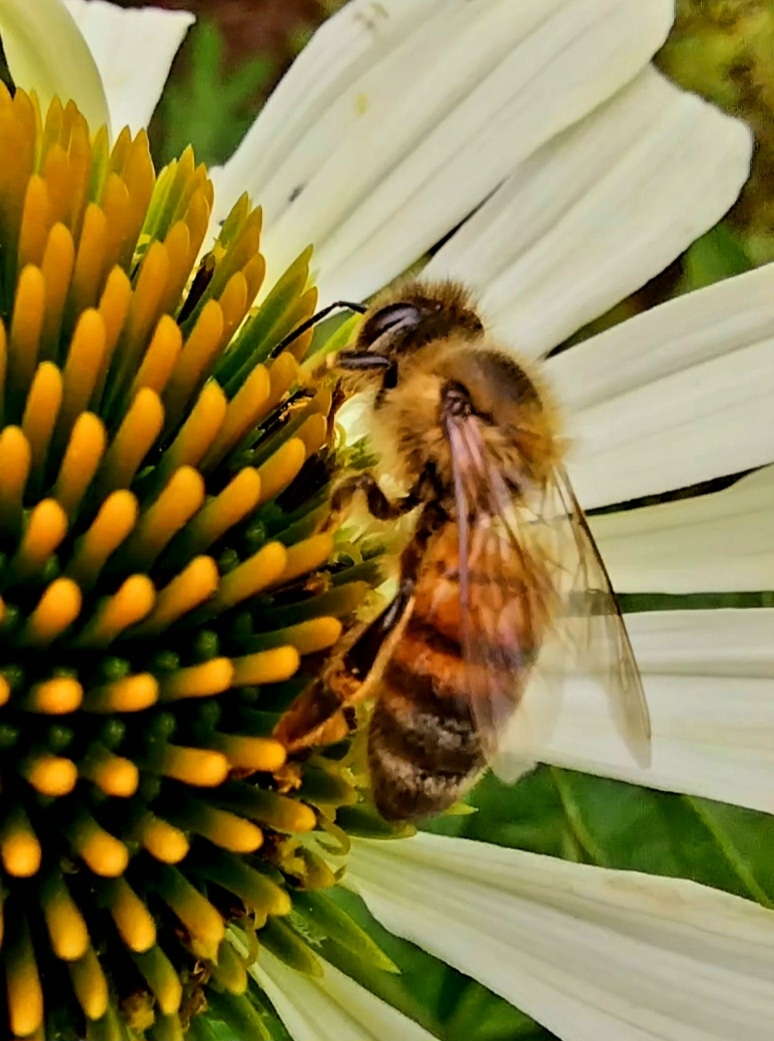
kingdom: Animalia
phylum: Arthropoda
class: Insecta
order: Hymenoptera
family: Apidae
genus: Apis
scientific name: Apis mellifera
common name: Honey bee
